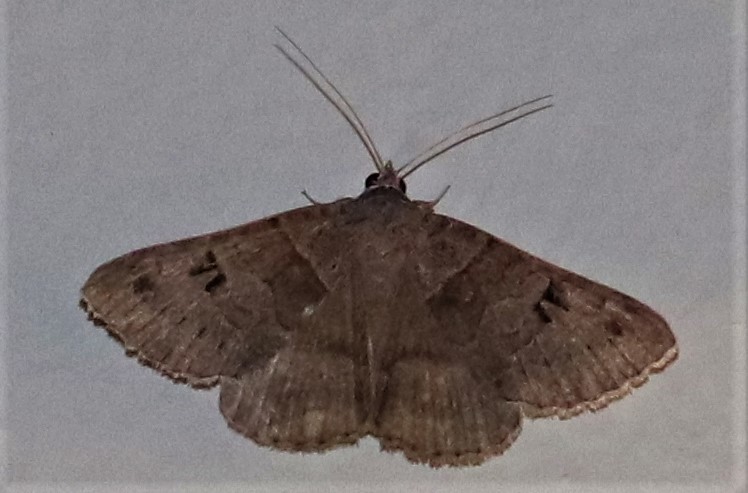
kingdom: Animalia
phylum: Arthropoda
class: Insecta
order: Lepidoptera
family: Erebidae
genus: Mocis
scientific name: Mocis mutuaria
